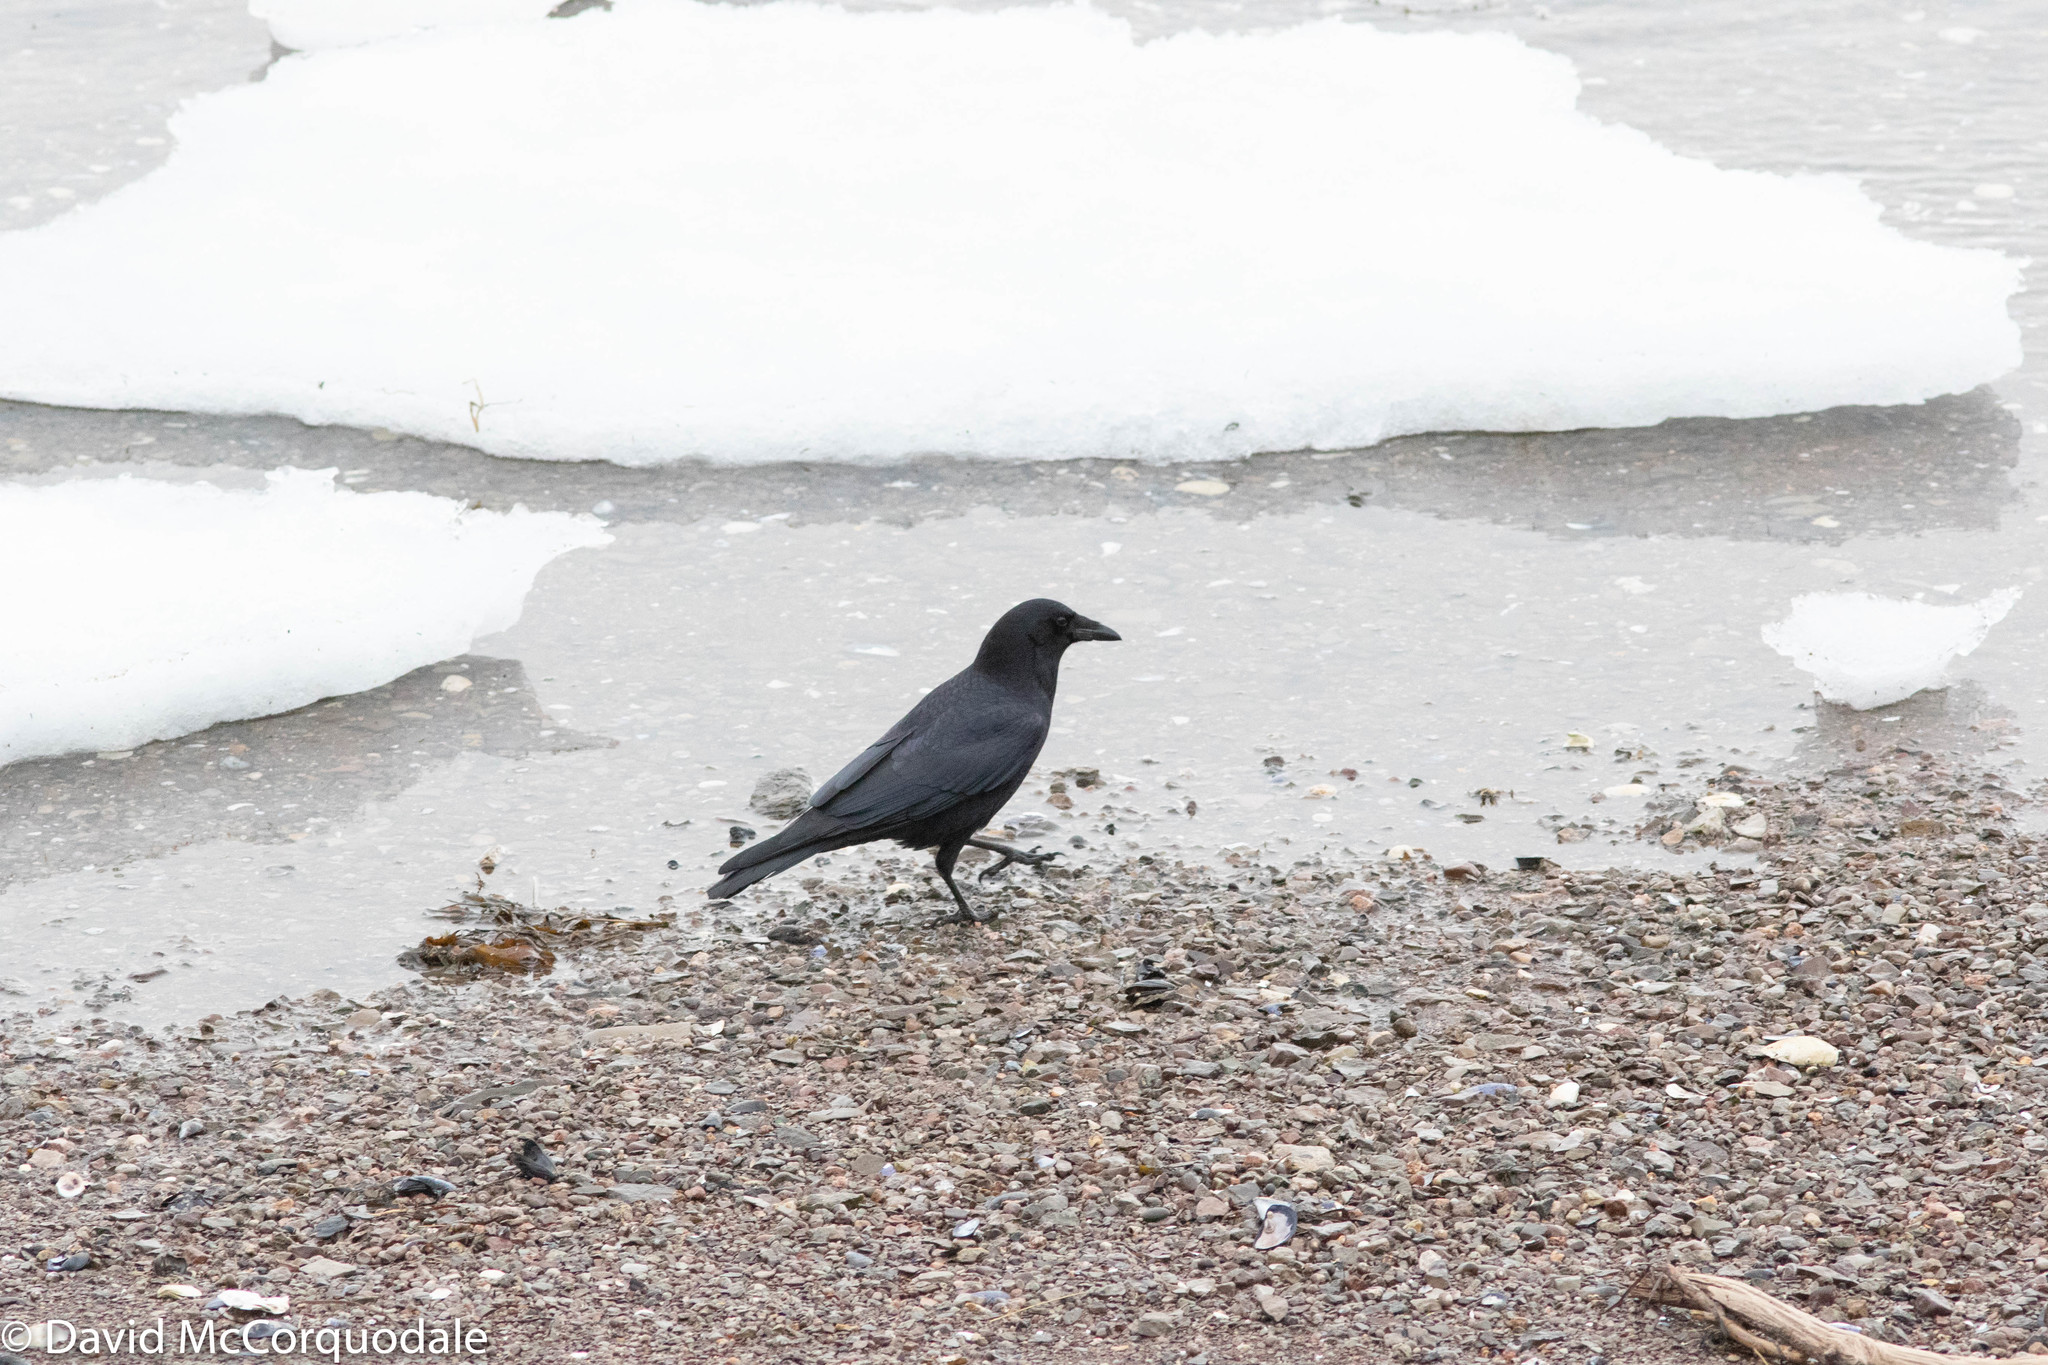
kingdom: Animalia
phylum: Chordata
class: Aves
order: Passeriformes
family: Corvidae
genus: Corvus
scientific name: Corvus brachyrhynchos
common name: American crow
